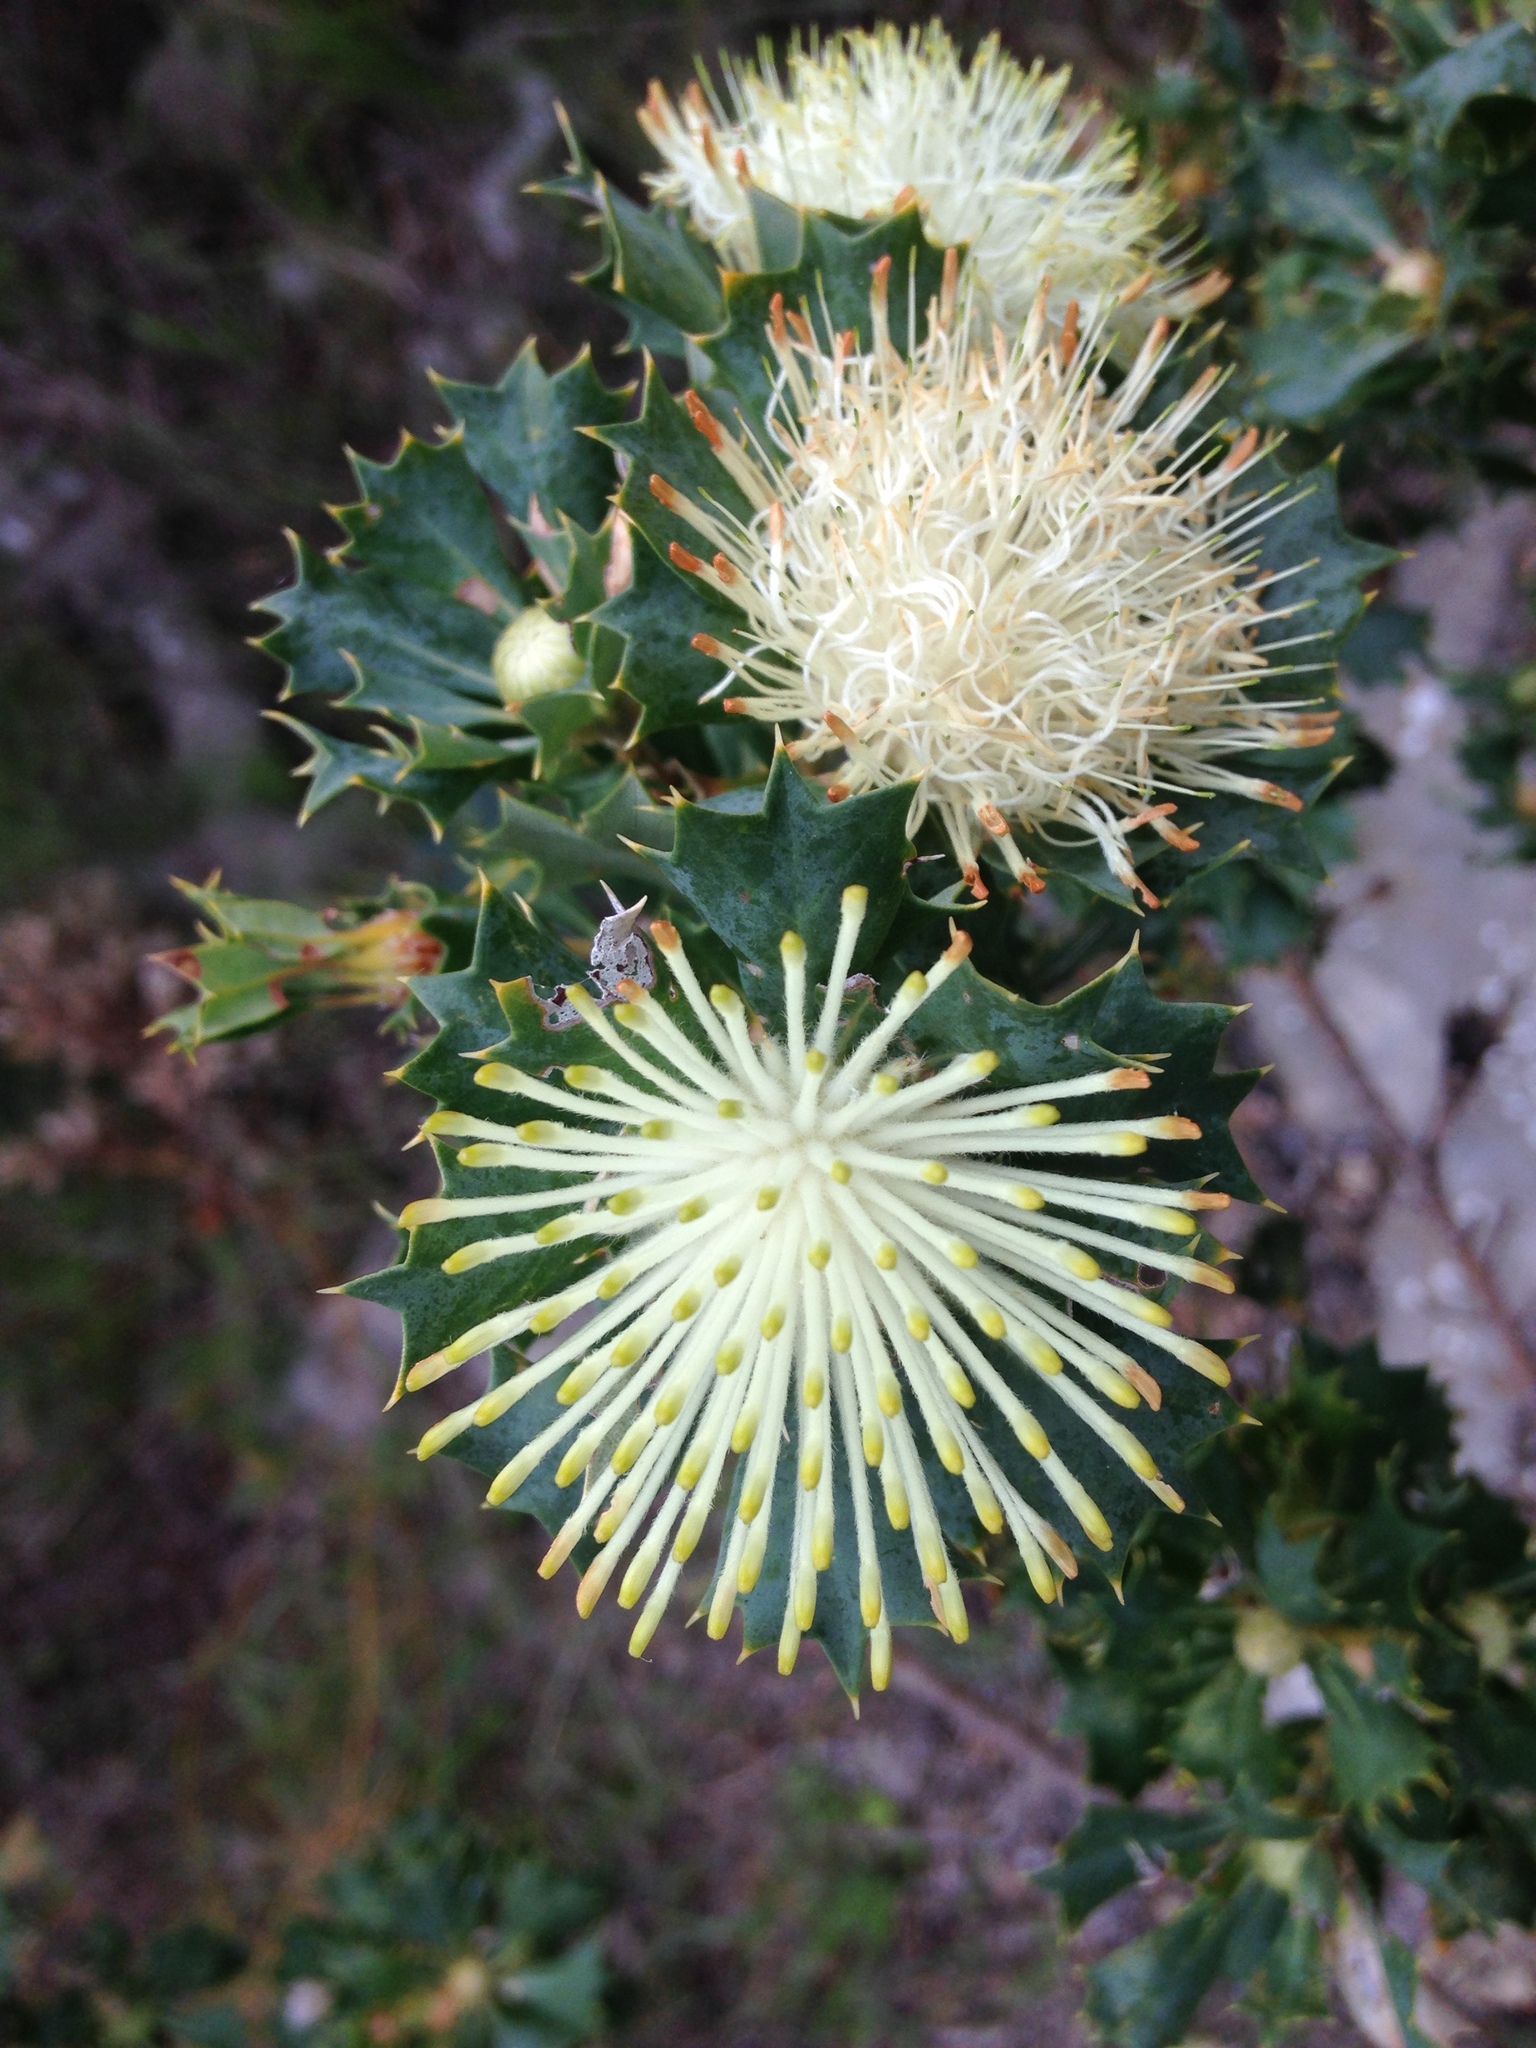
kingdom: Plantae
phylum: Tracheophyta
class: Magnoliopsida
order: Proteales
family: Proteaceae
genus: Banksia
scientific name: Banksia sessilis
